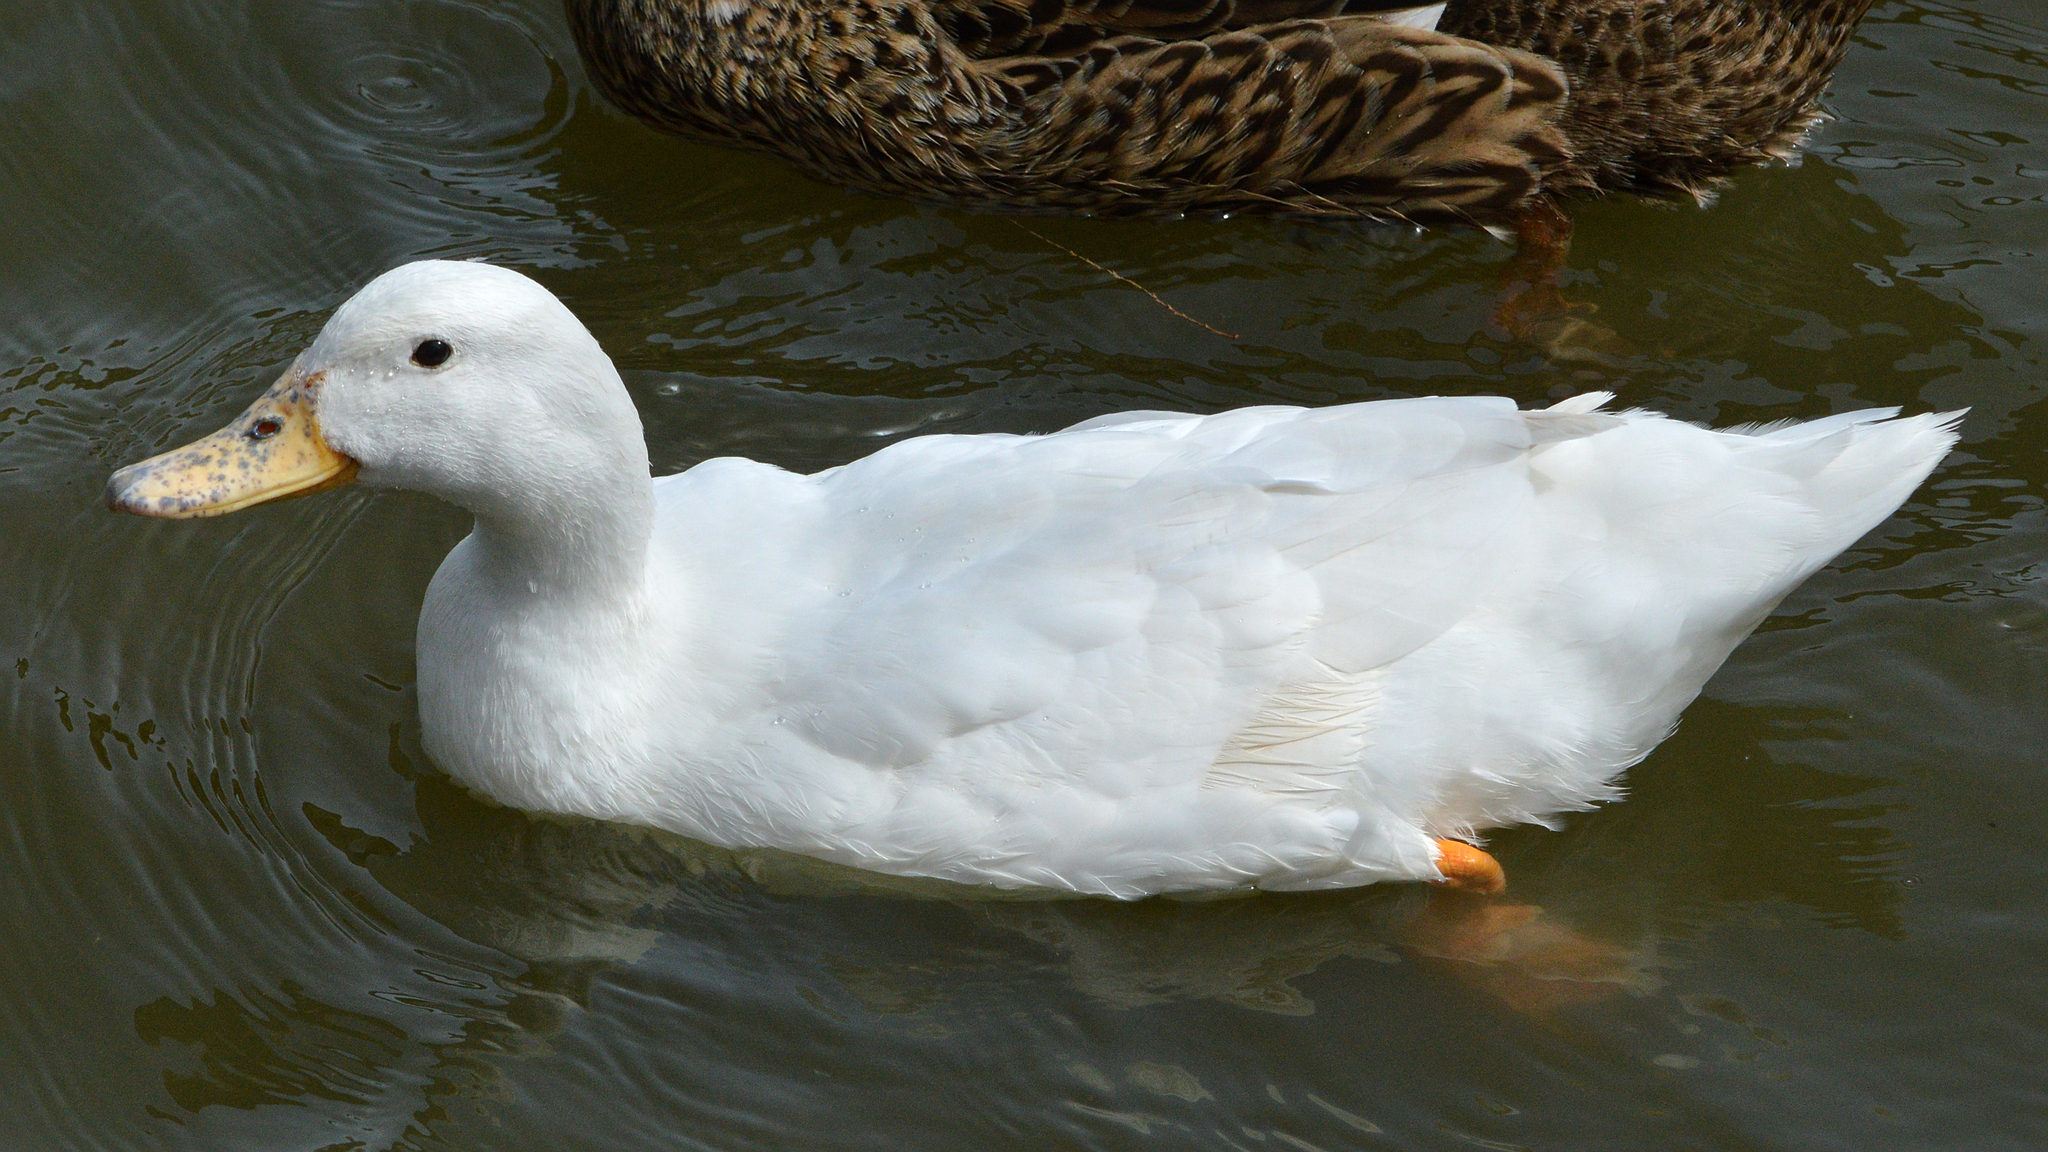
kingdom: Animalia
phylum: Chordata
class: Aves
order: Anseriformes
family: Anatidae
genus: Anas
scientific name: Anas platyrhynchos
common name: Mallard
